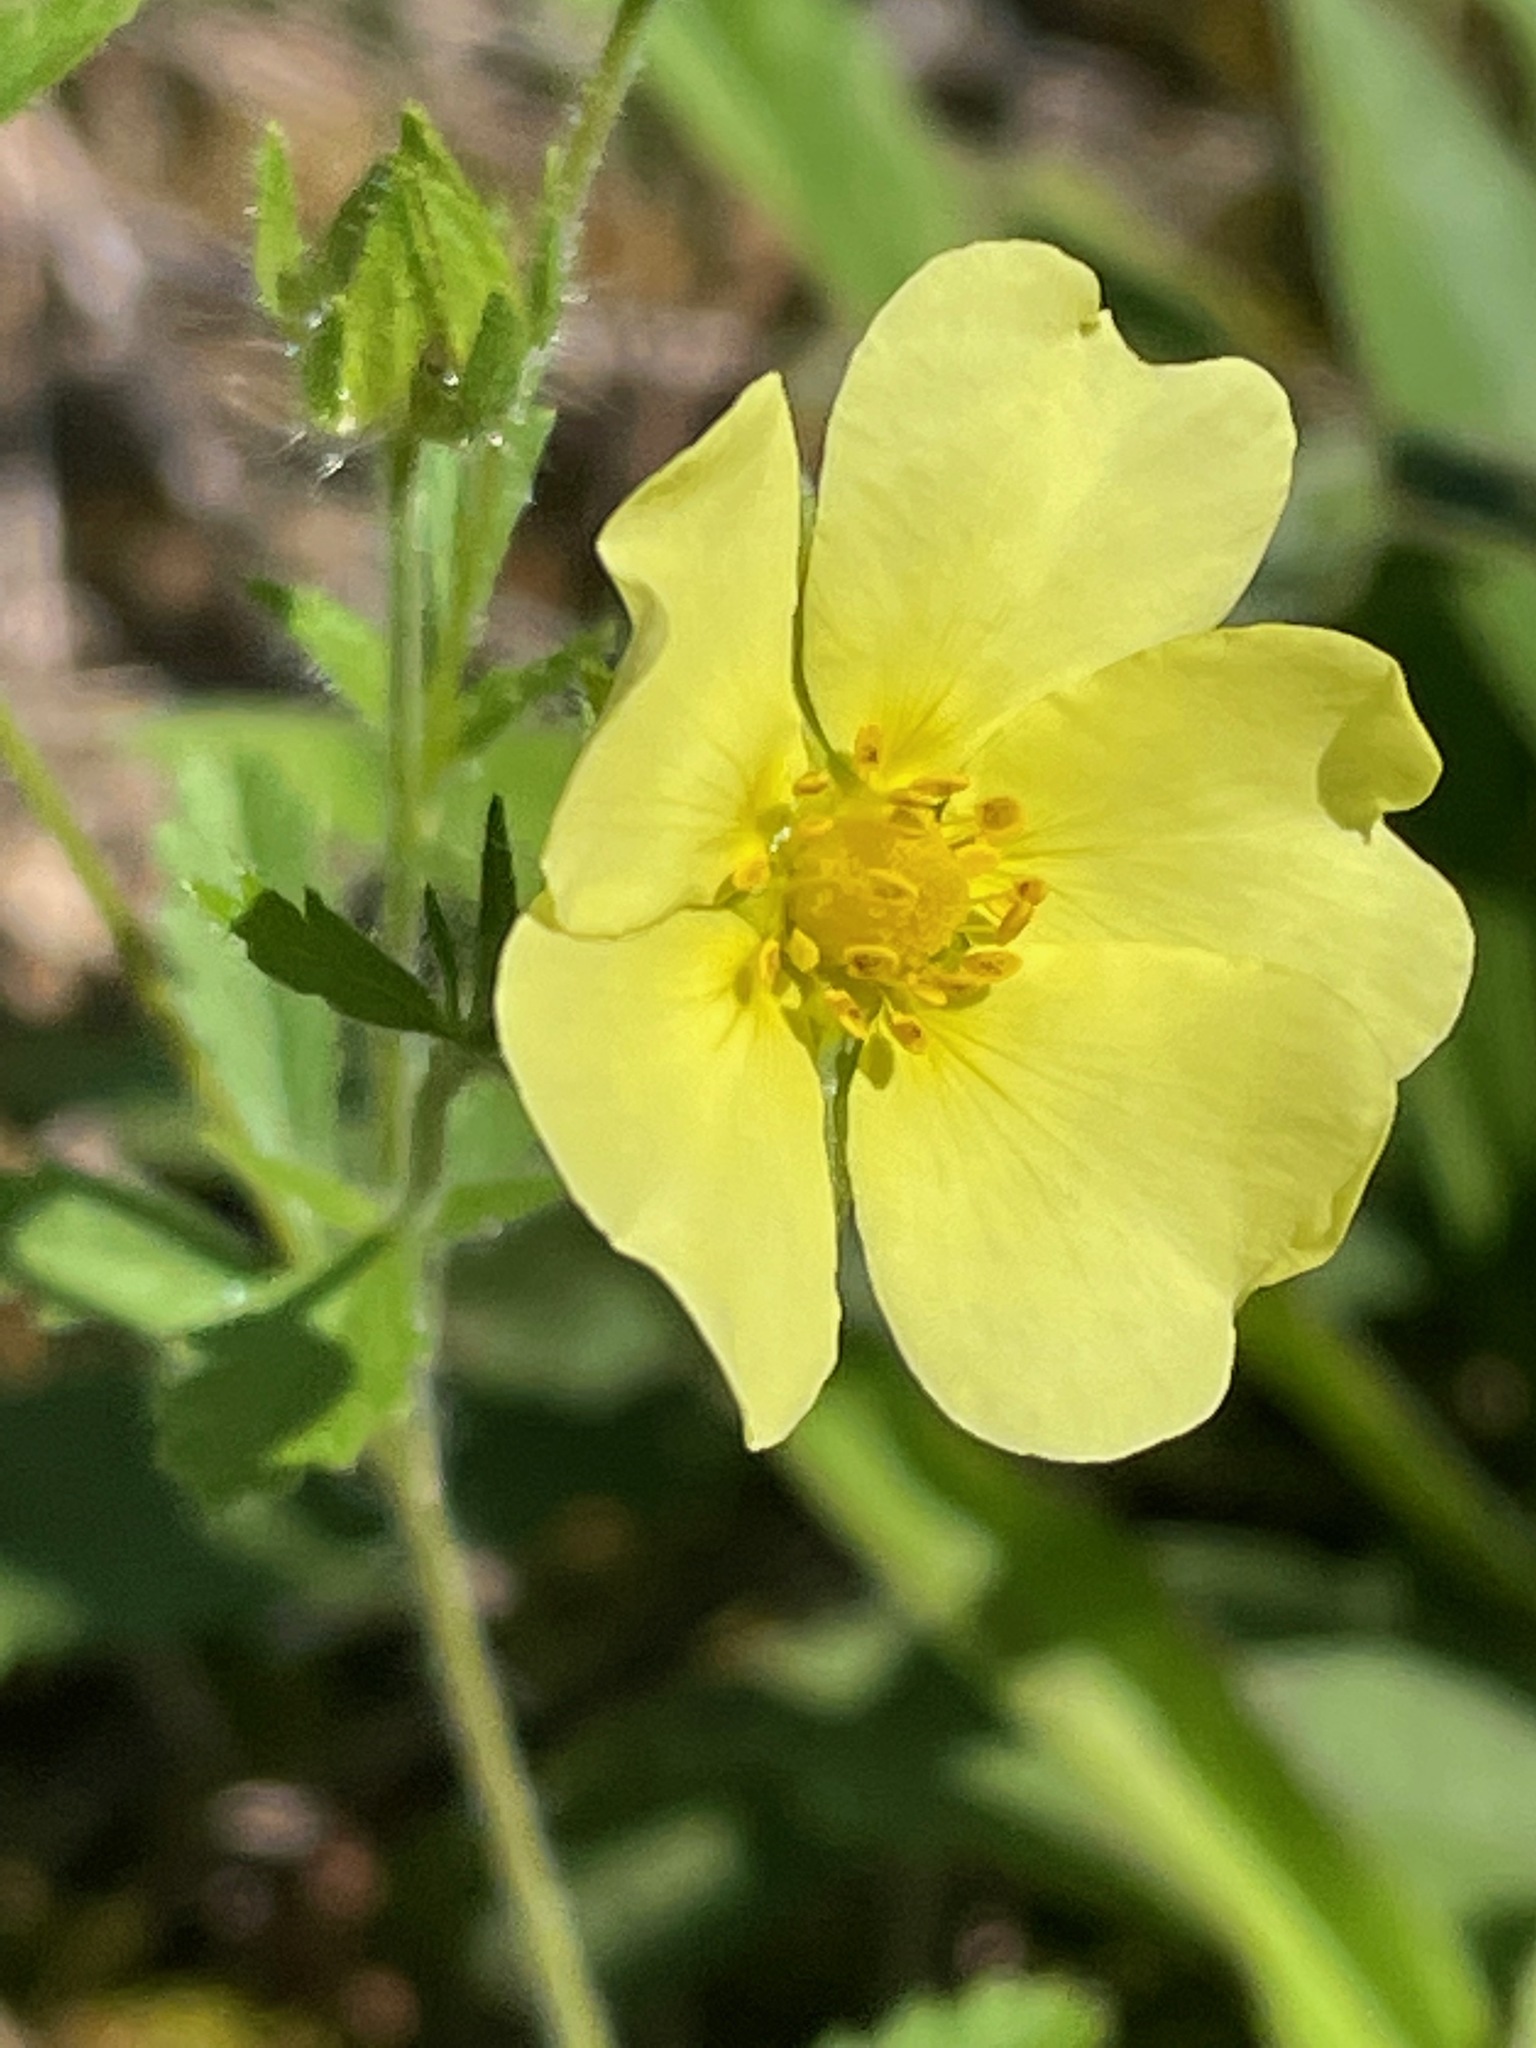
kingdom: Plantae
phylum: Tracheophyta
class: Magnoliopsida
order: Rosales
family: Rosaceae
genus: Potentilla
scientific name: Potentilla recta
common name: Sulphur cinquefoil
